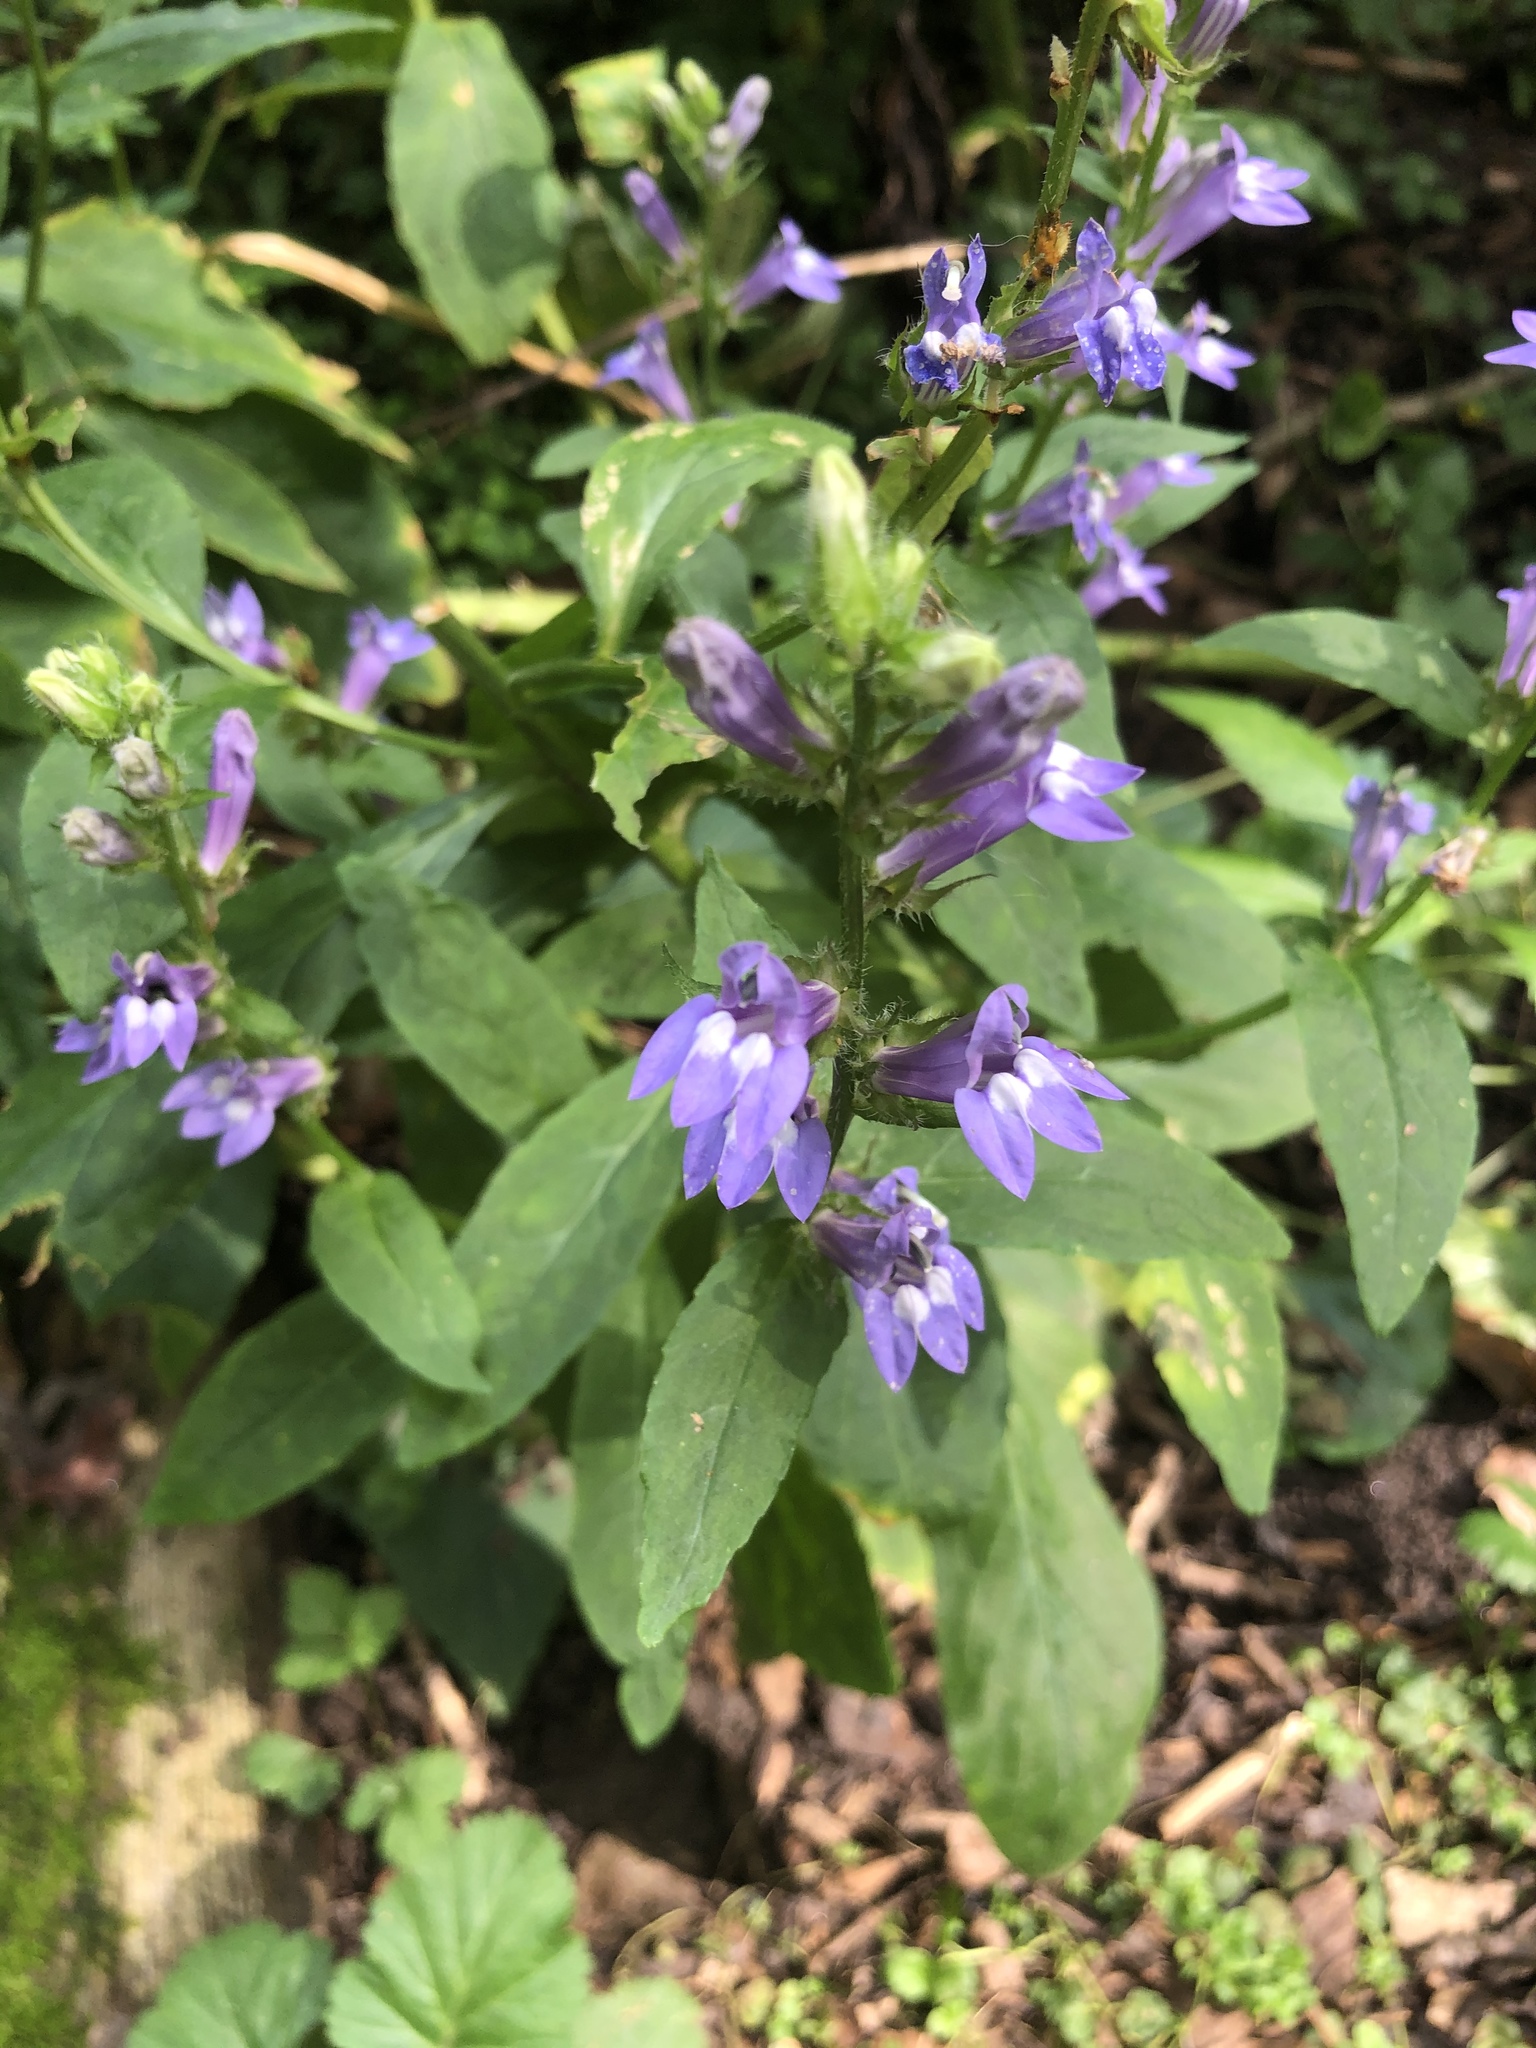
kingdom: Plantae
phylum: Tracheophyta
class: Magnoliopsida
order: Asterales
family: Campanulaceae
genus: Lobelia
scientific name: Lobelia siphilitica
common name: Great lobelia
